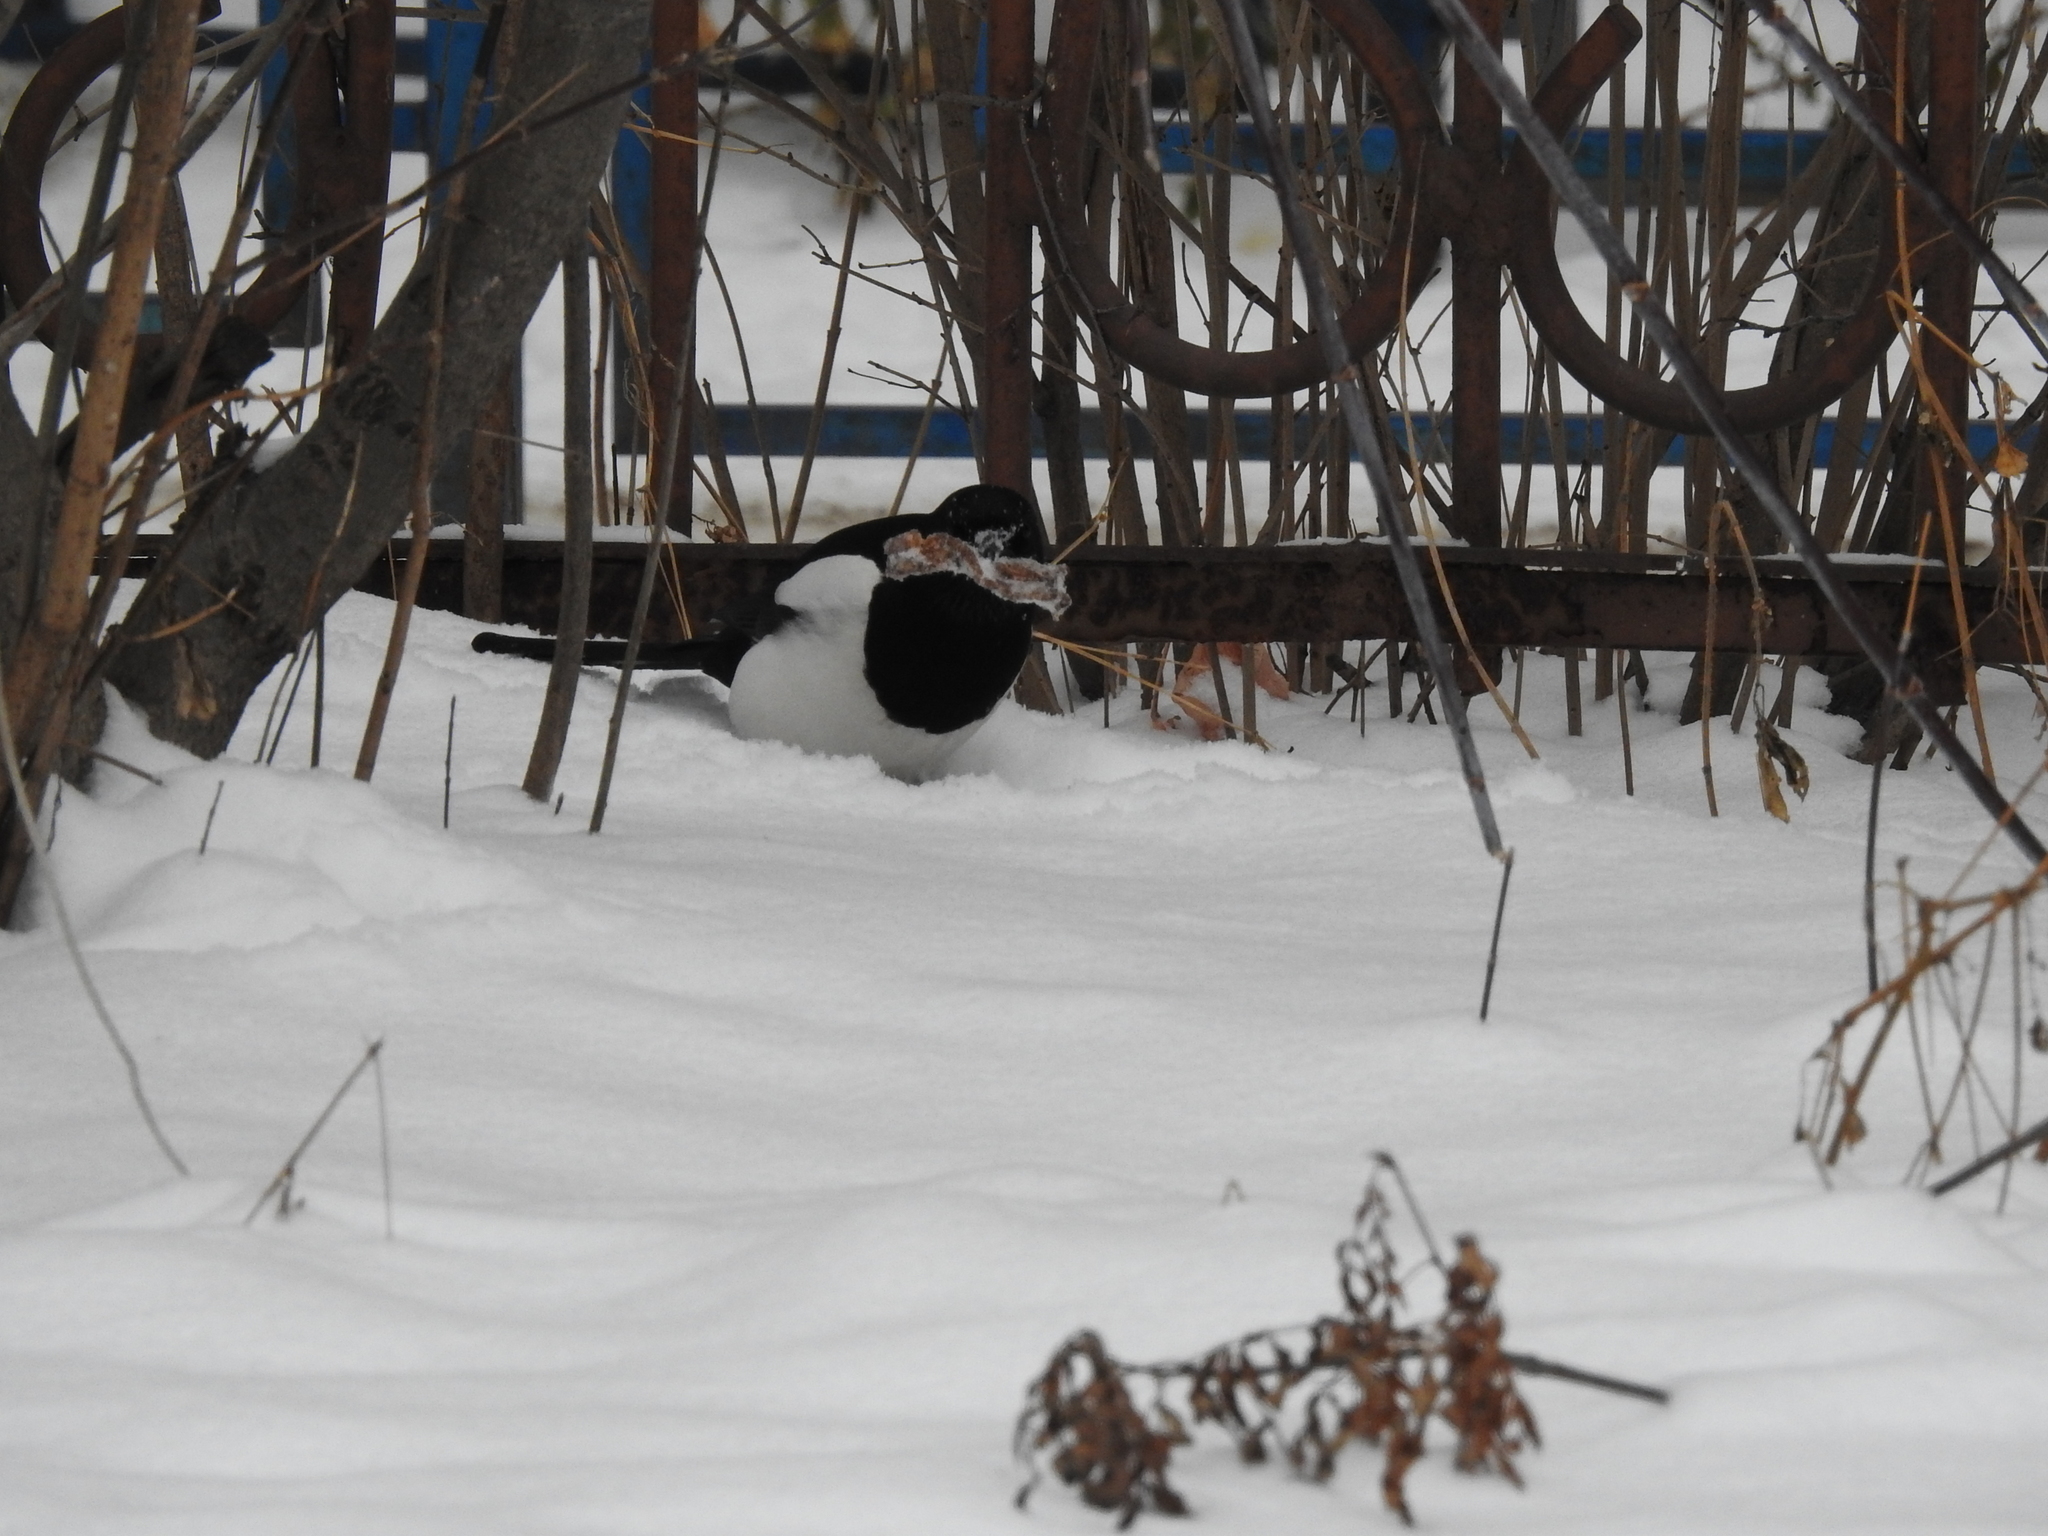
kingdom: Animalia
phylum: Chordata
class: Aves
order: Passeriformes
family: Corvidae
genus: Pica
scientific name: Pica pica
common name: Eurasian magpie
